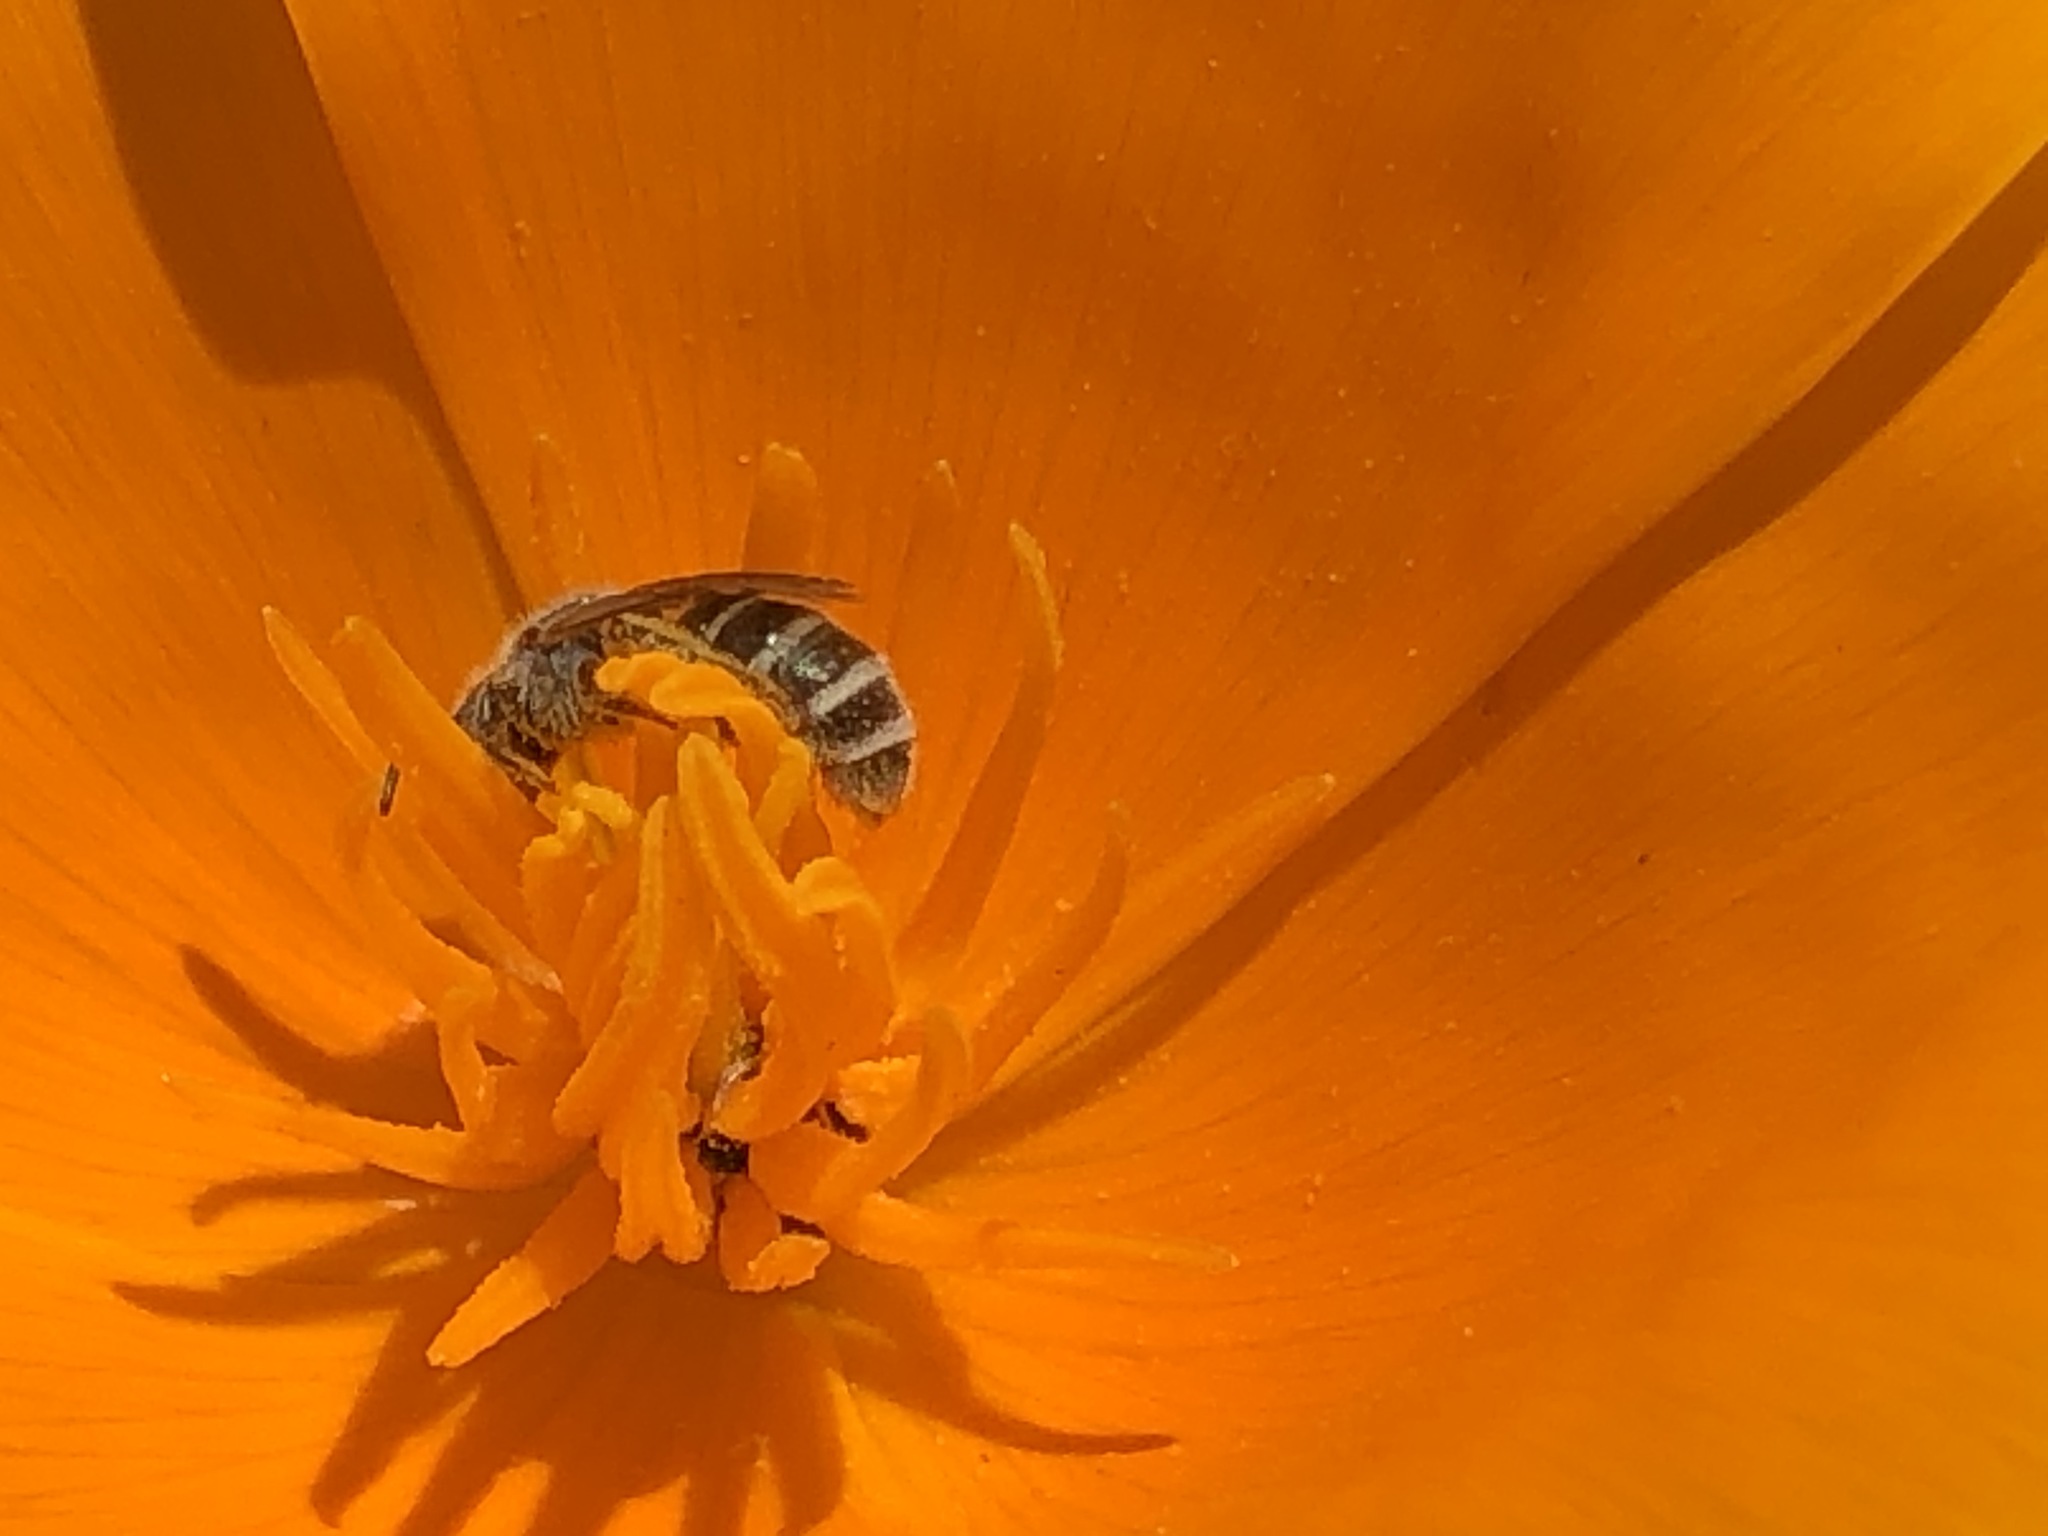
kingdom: Animalia
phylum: Arthropoda
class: Insecta
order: Hymenoptera
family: Halictidae
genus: Halictus
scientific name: Halictus tripartitus
